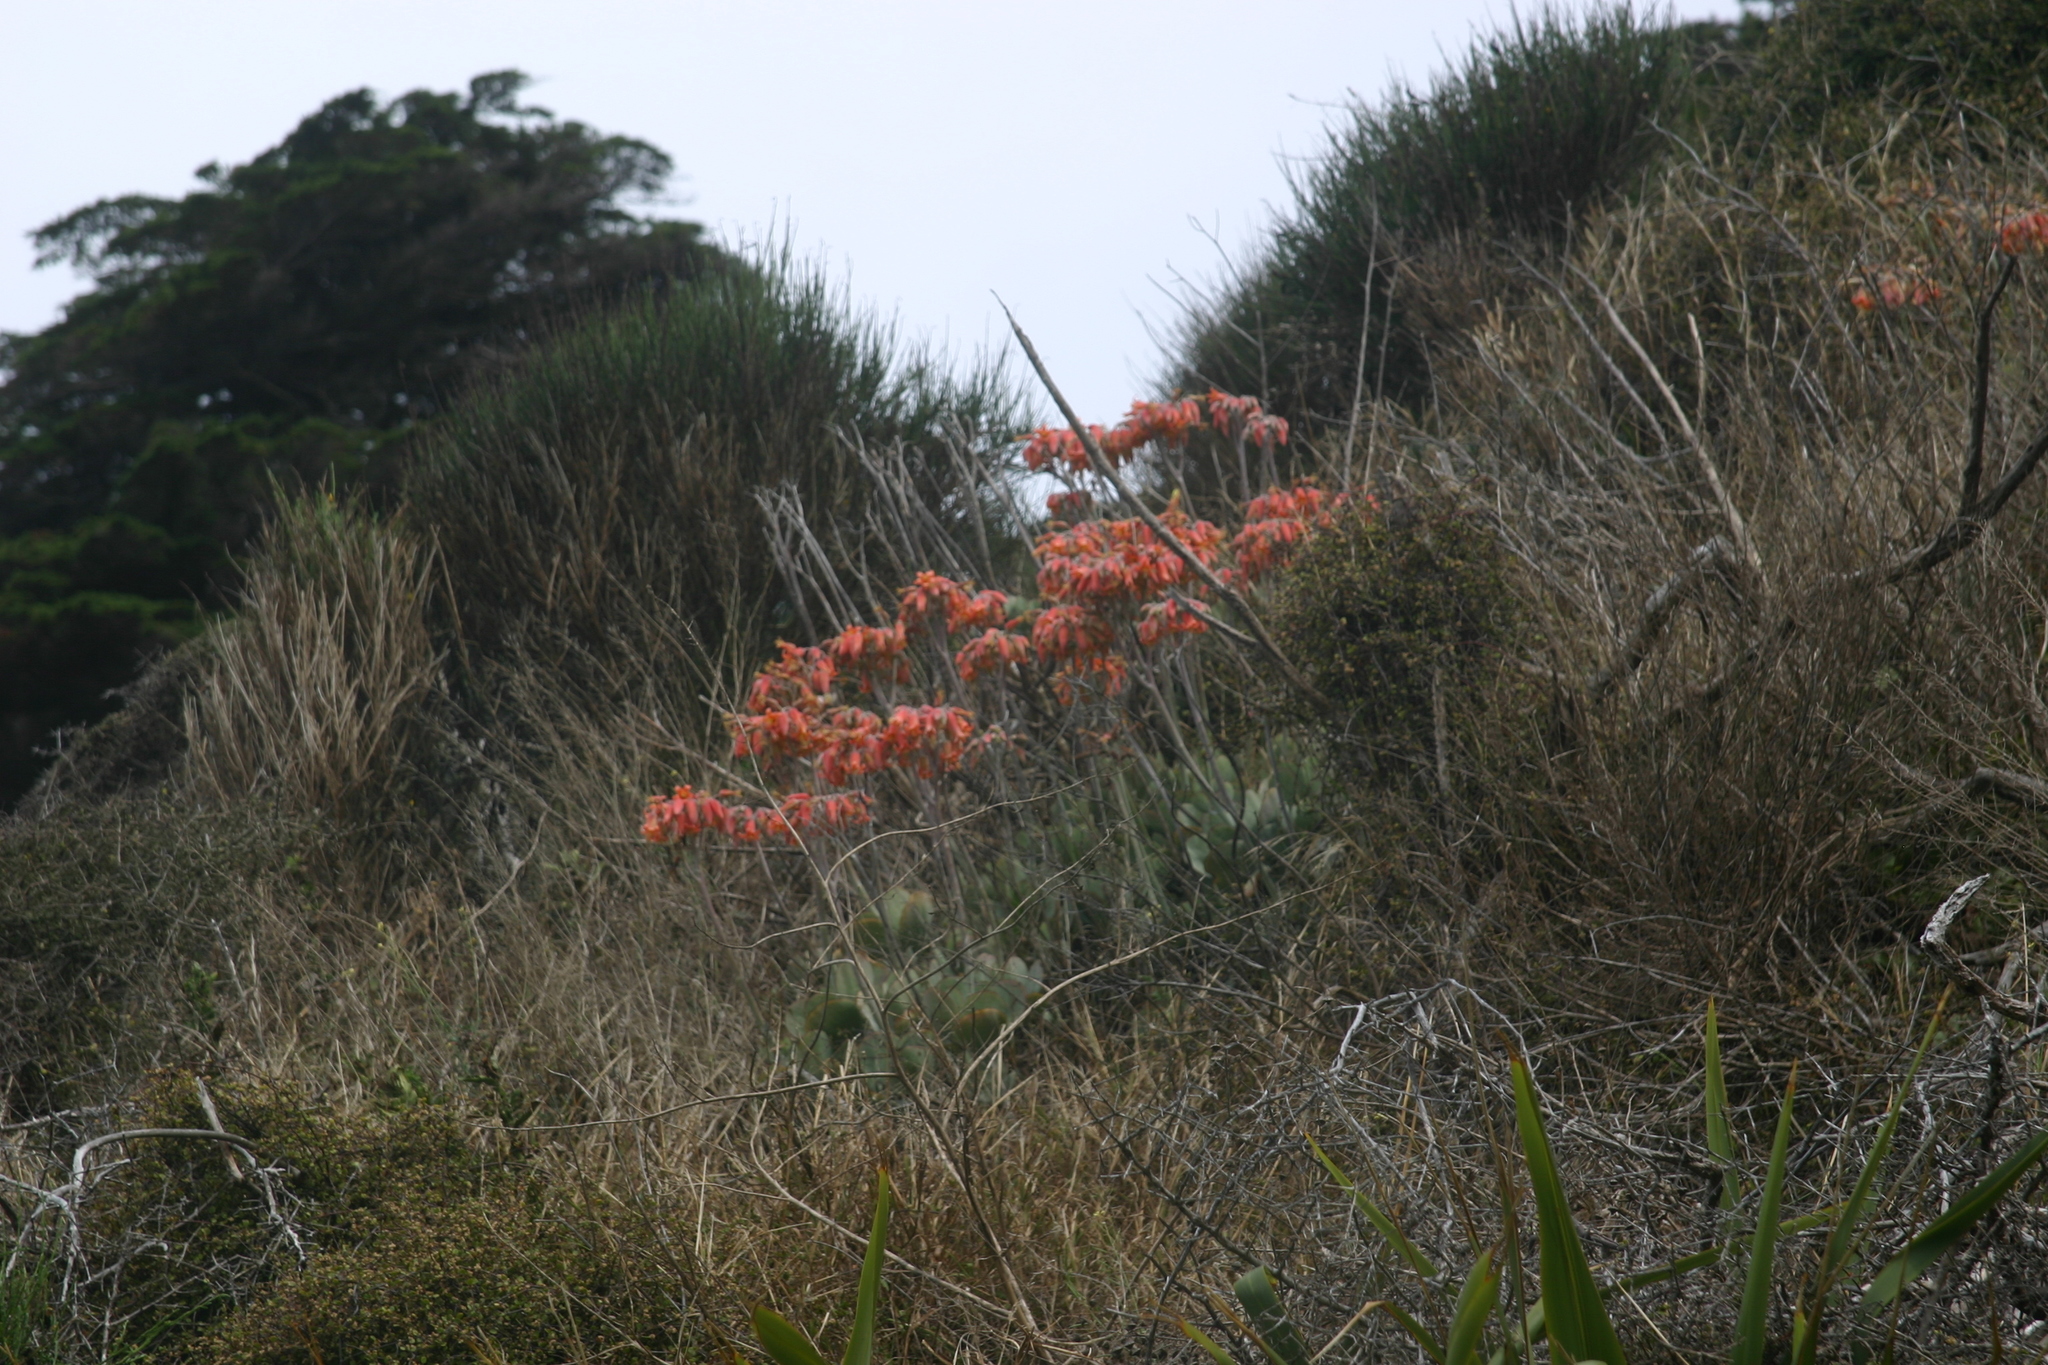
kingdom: Plantae
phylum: Tracheophyta
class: Magnoliopsida
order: Saxifragales
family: Crassulaceae
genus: Cotyledon
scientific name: Cotyledon orbiculata
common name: Pig's ear
